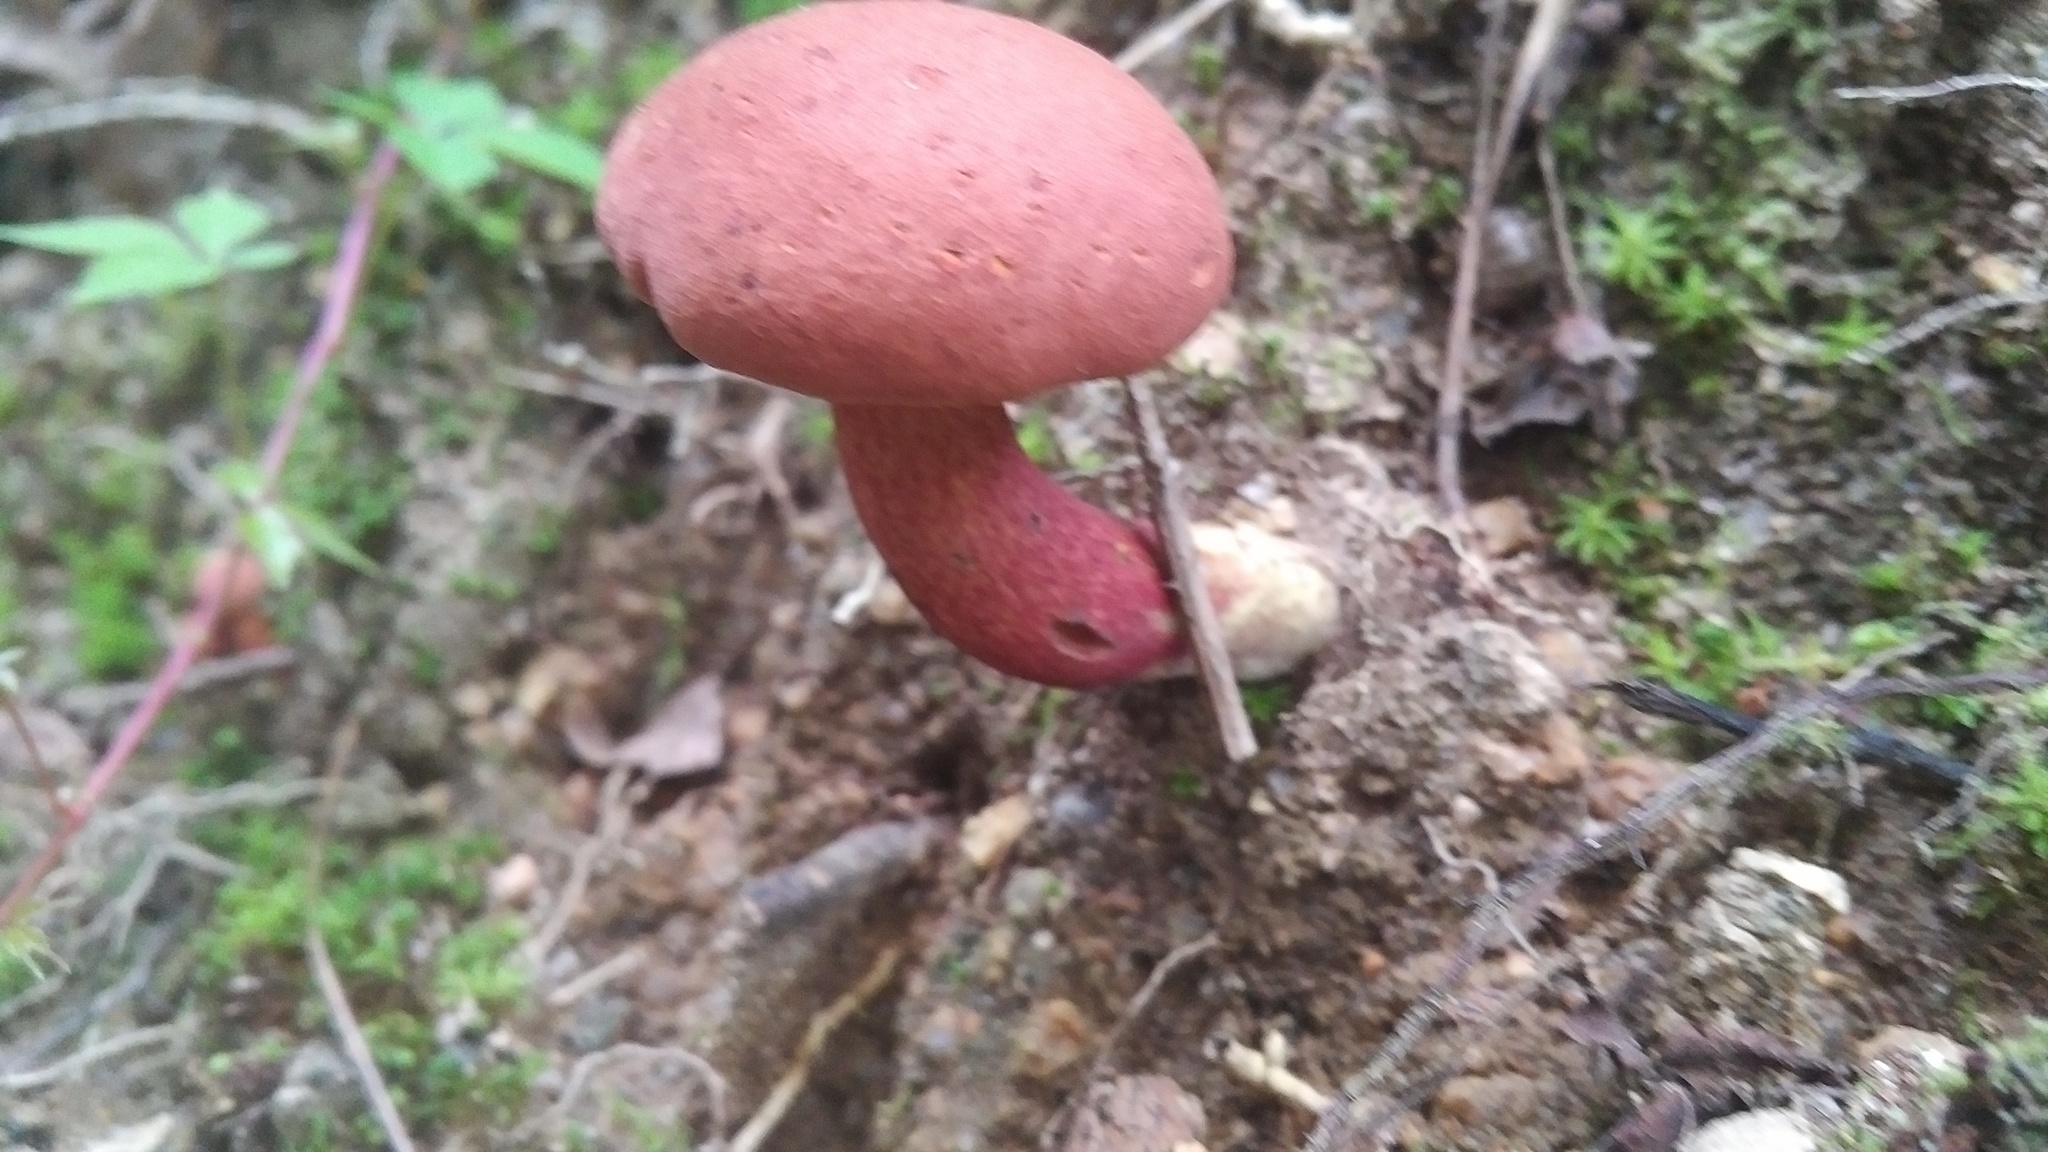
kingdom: Fungi
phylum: Basidiomycota
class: Agaricomycetes
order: Boletales
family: Boletaceae
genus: Baorangia
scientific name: Baorangia bicolor
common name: Two-colored bolete
